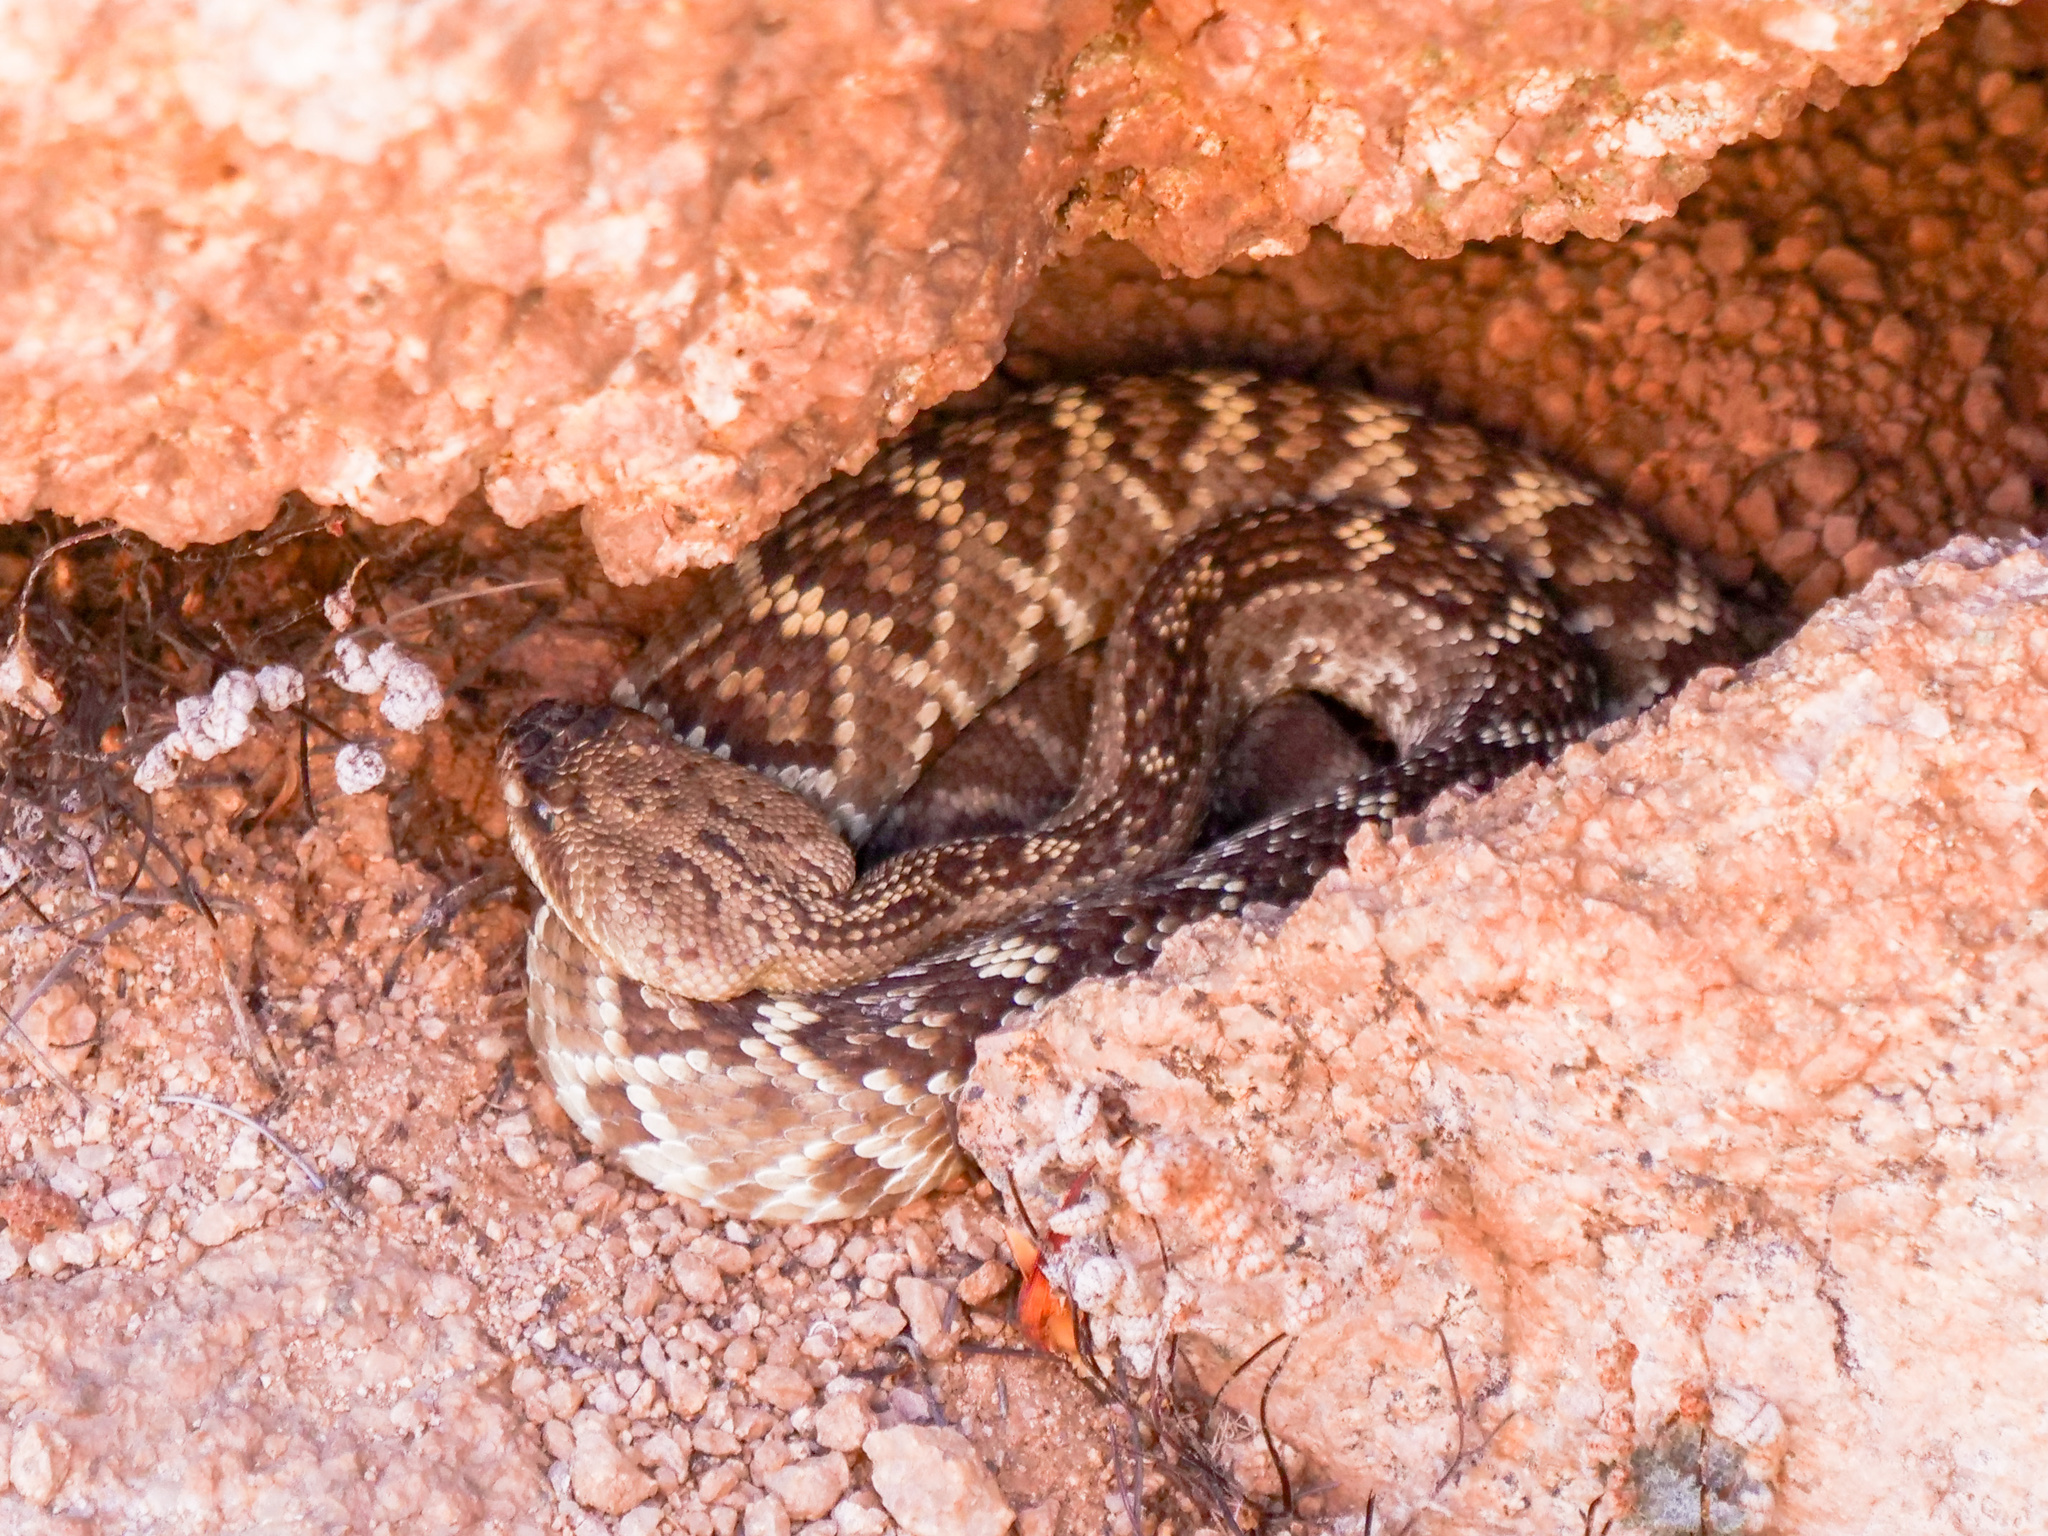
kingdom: Animalia
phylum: Chordata
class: Squamata
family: Viperidae
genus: Crotalus
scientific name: Crotalus molossus
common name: Black tailed rattlesnake
